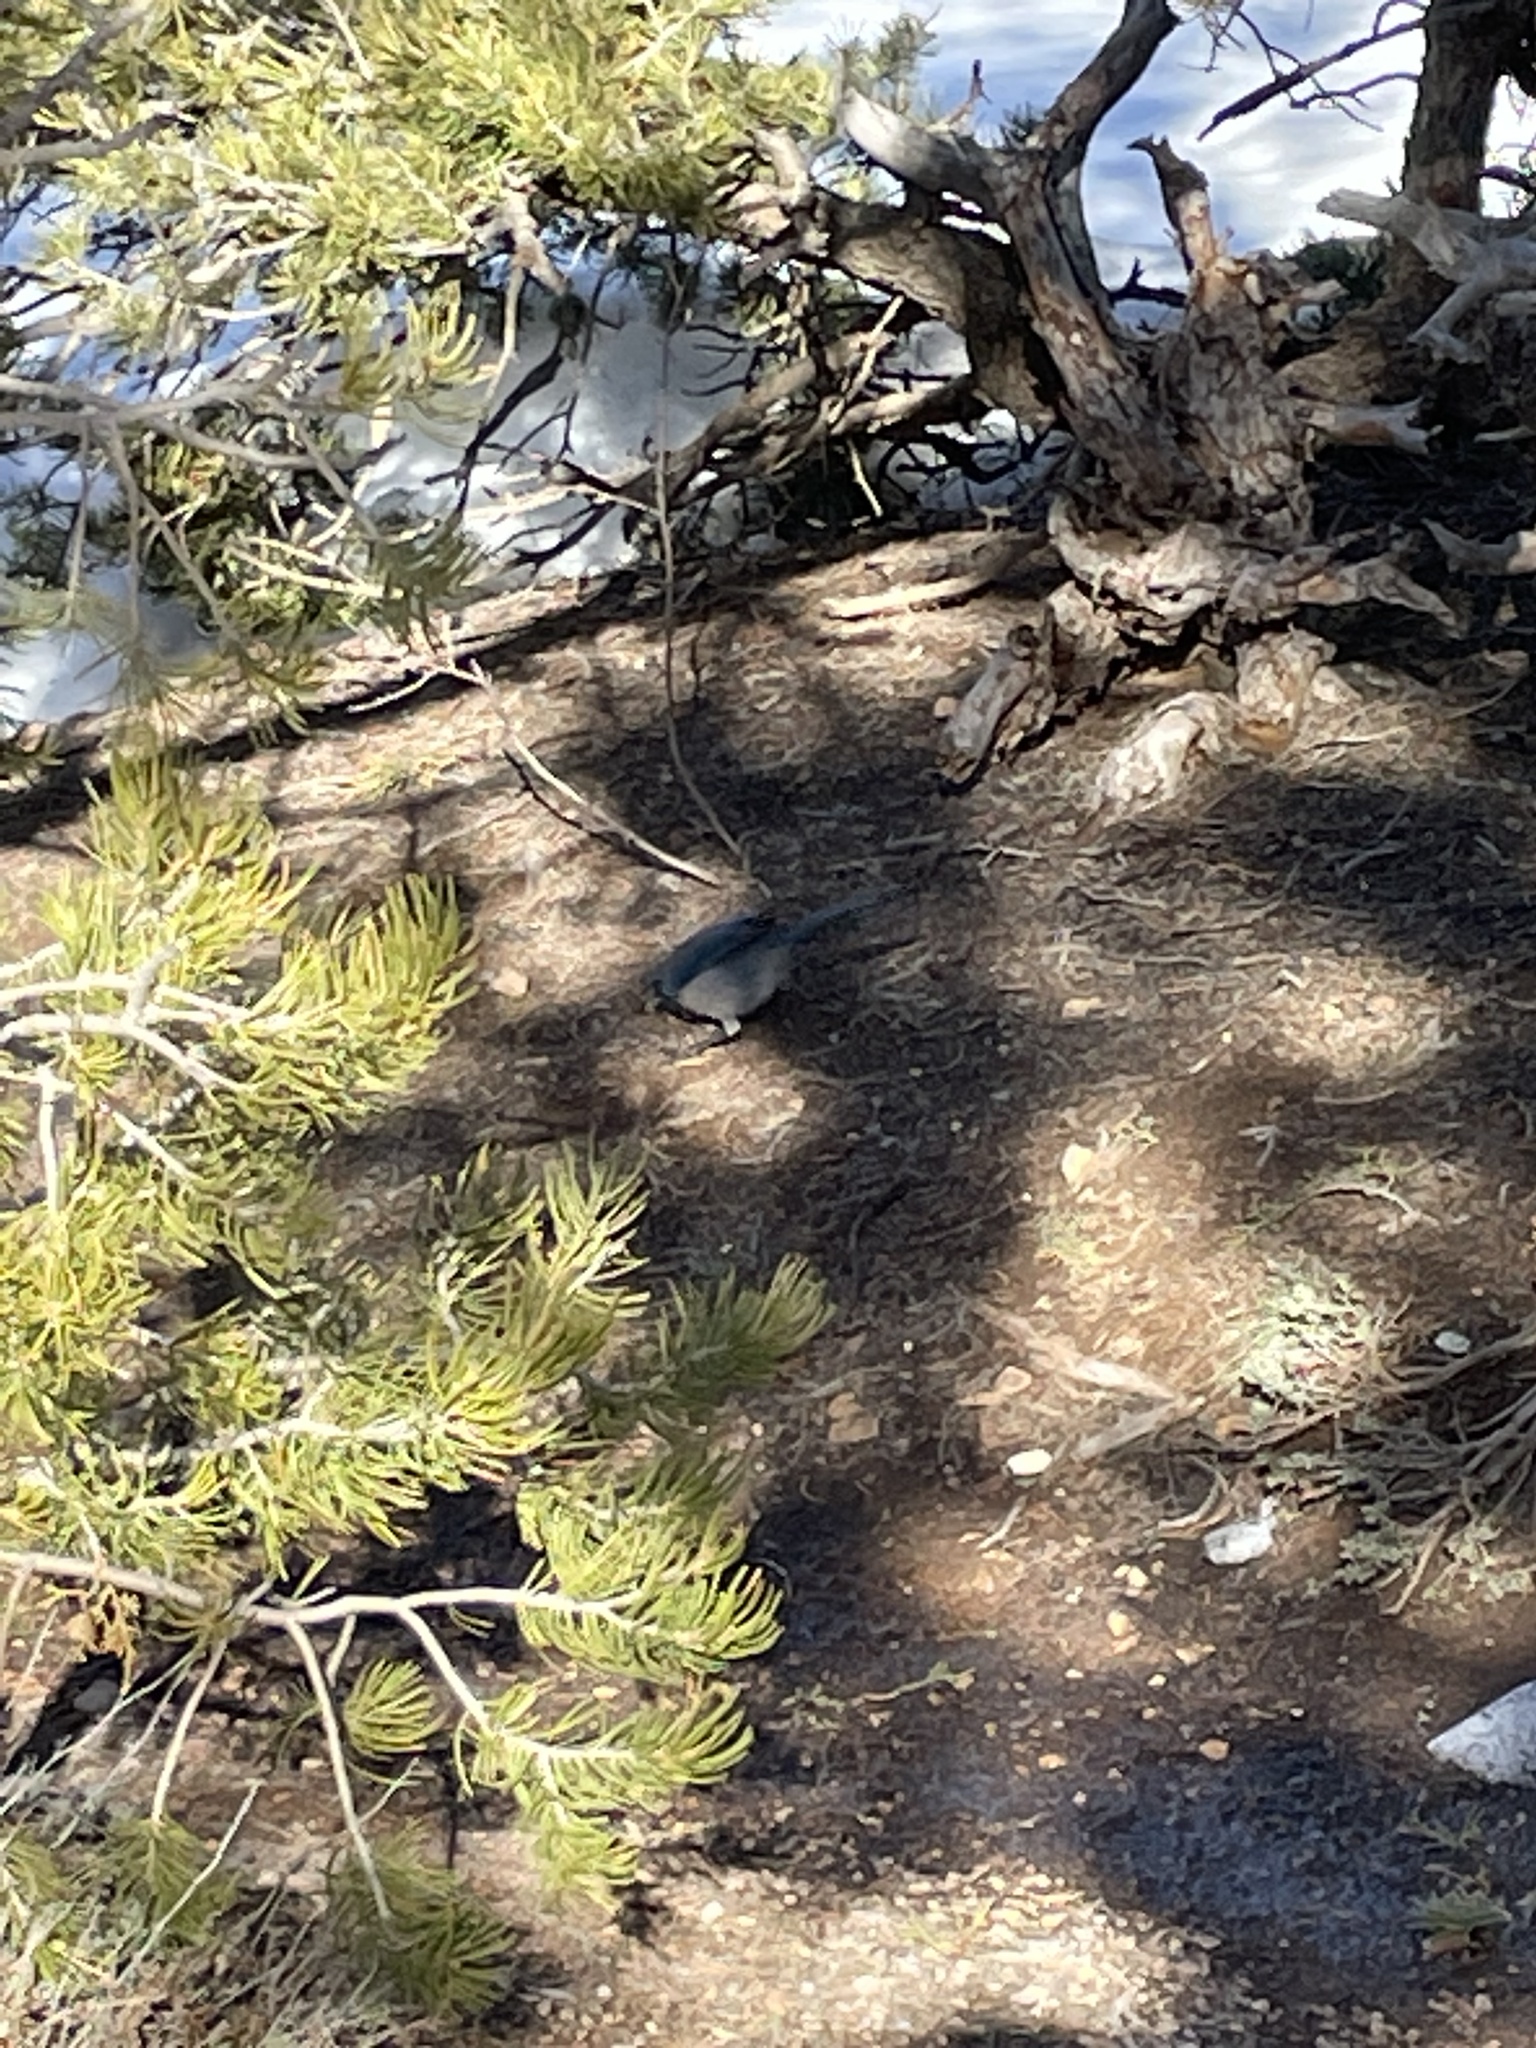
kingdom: Animalia
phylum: Chordata
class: Aves
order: Passeriformes
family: Corvidae
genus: Aphelocoma
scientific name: Aphelocoma woodhouseii
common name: Woodhouse's scrub-jay
